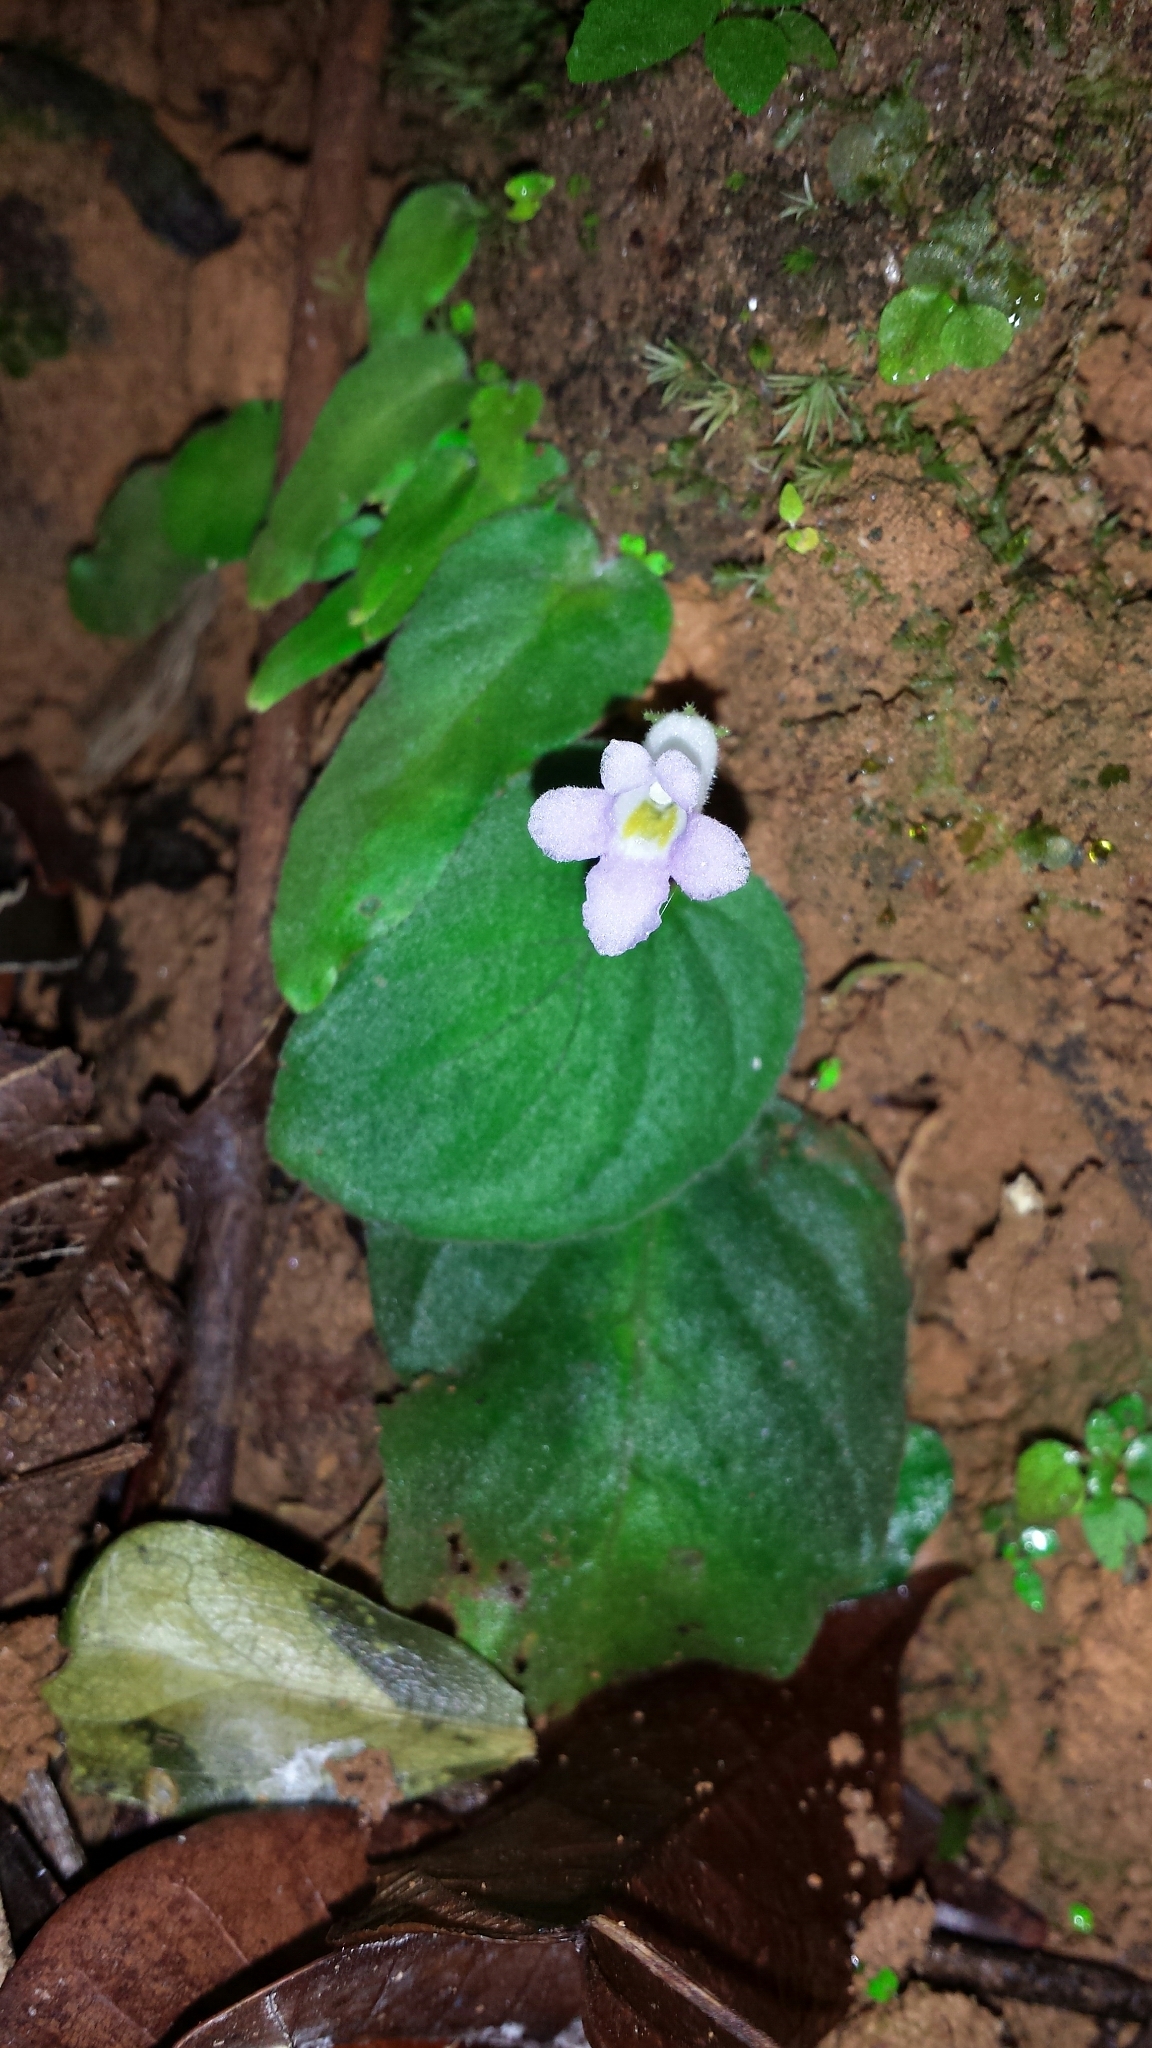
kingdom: Plantae
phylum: Tracheophyta
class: Magnoliopsida
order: Lamiales
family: Gesneriaceae
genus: Streptocarpus
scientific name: Streptocarpus brevistamineus
